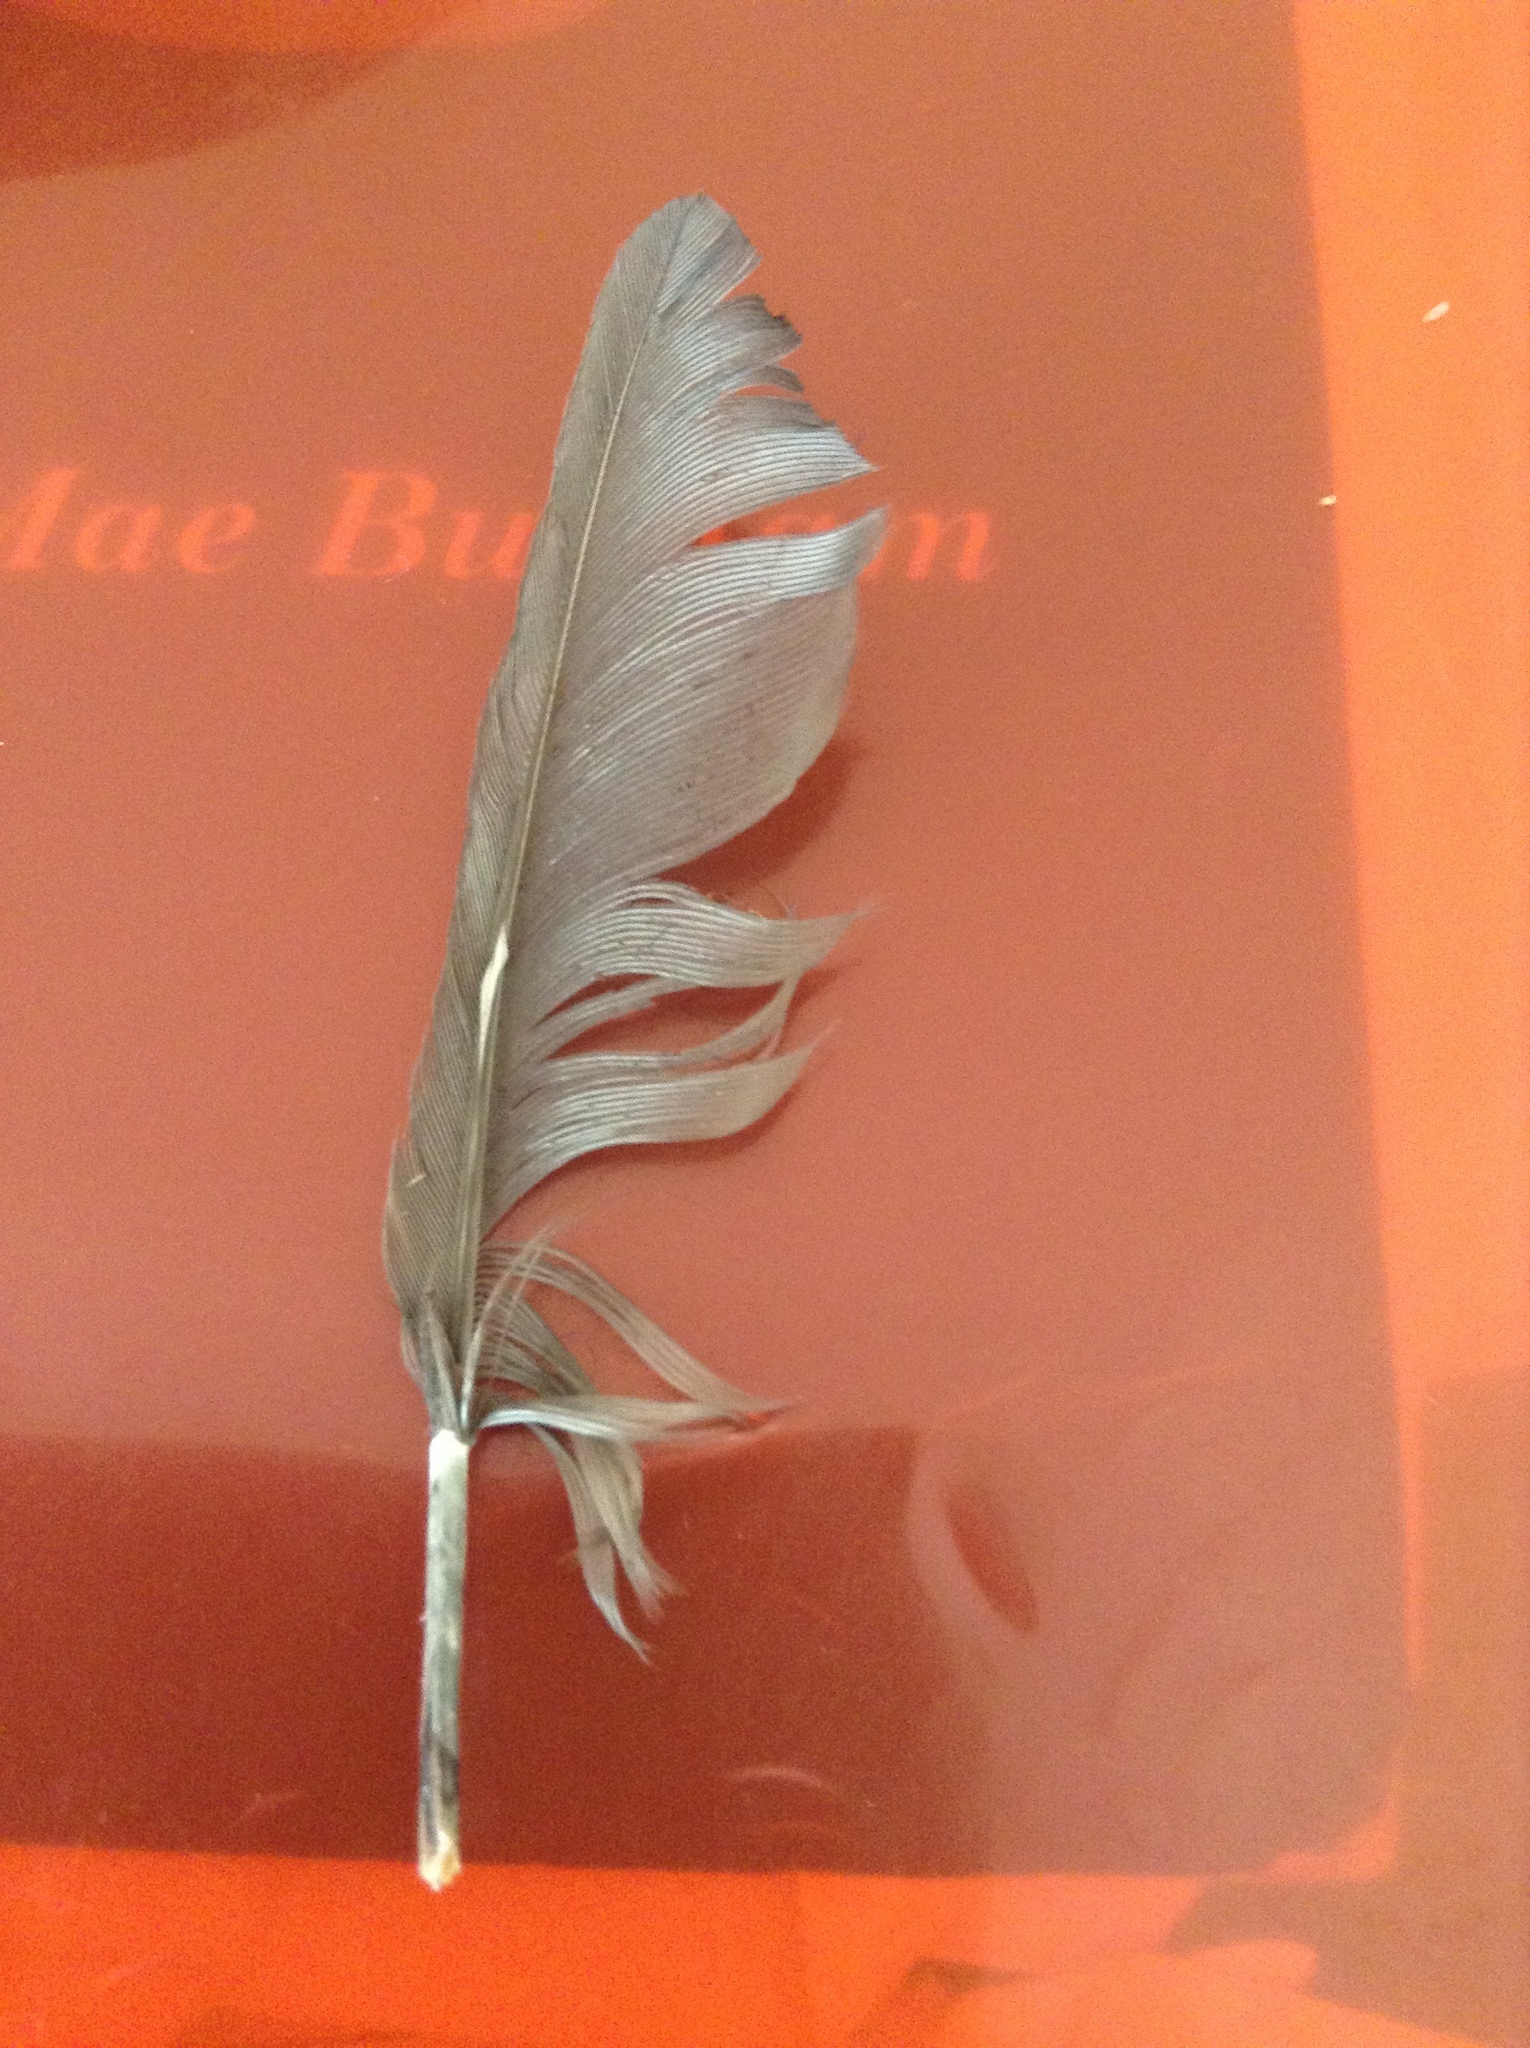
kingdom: Animalia
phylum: Chordata
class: Aves
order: Passeriformes
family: Corvidae
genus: Coloeus
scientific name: Coloeus monedula
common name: Western jackdaw
